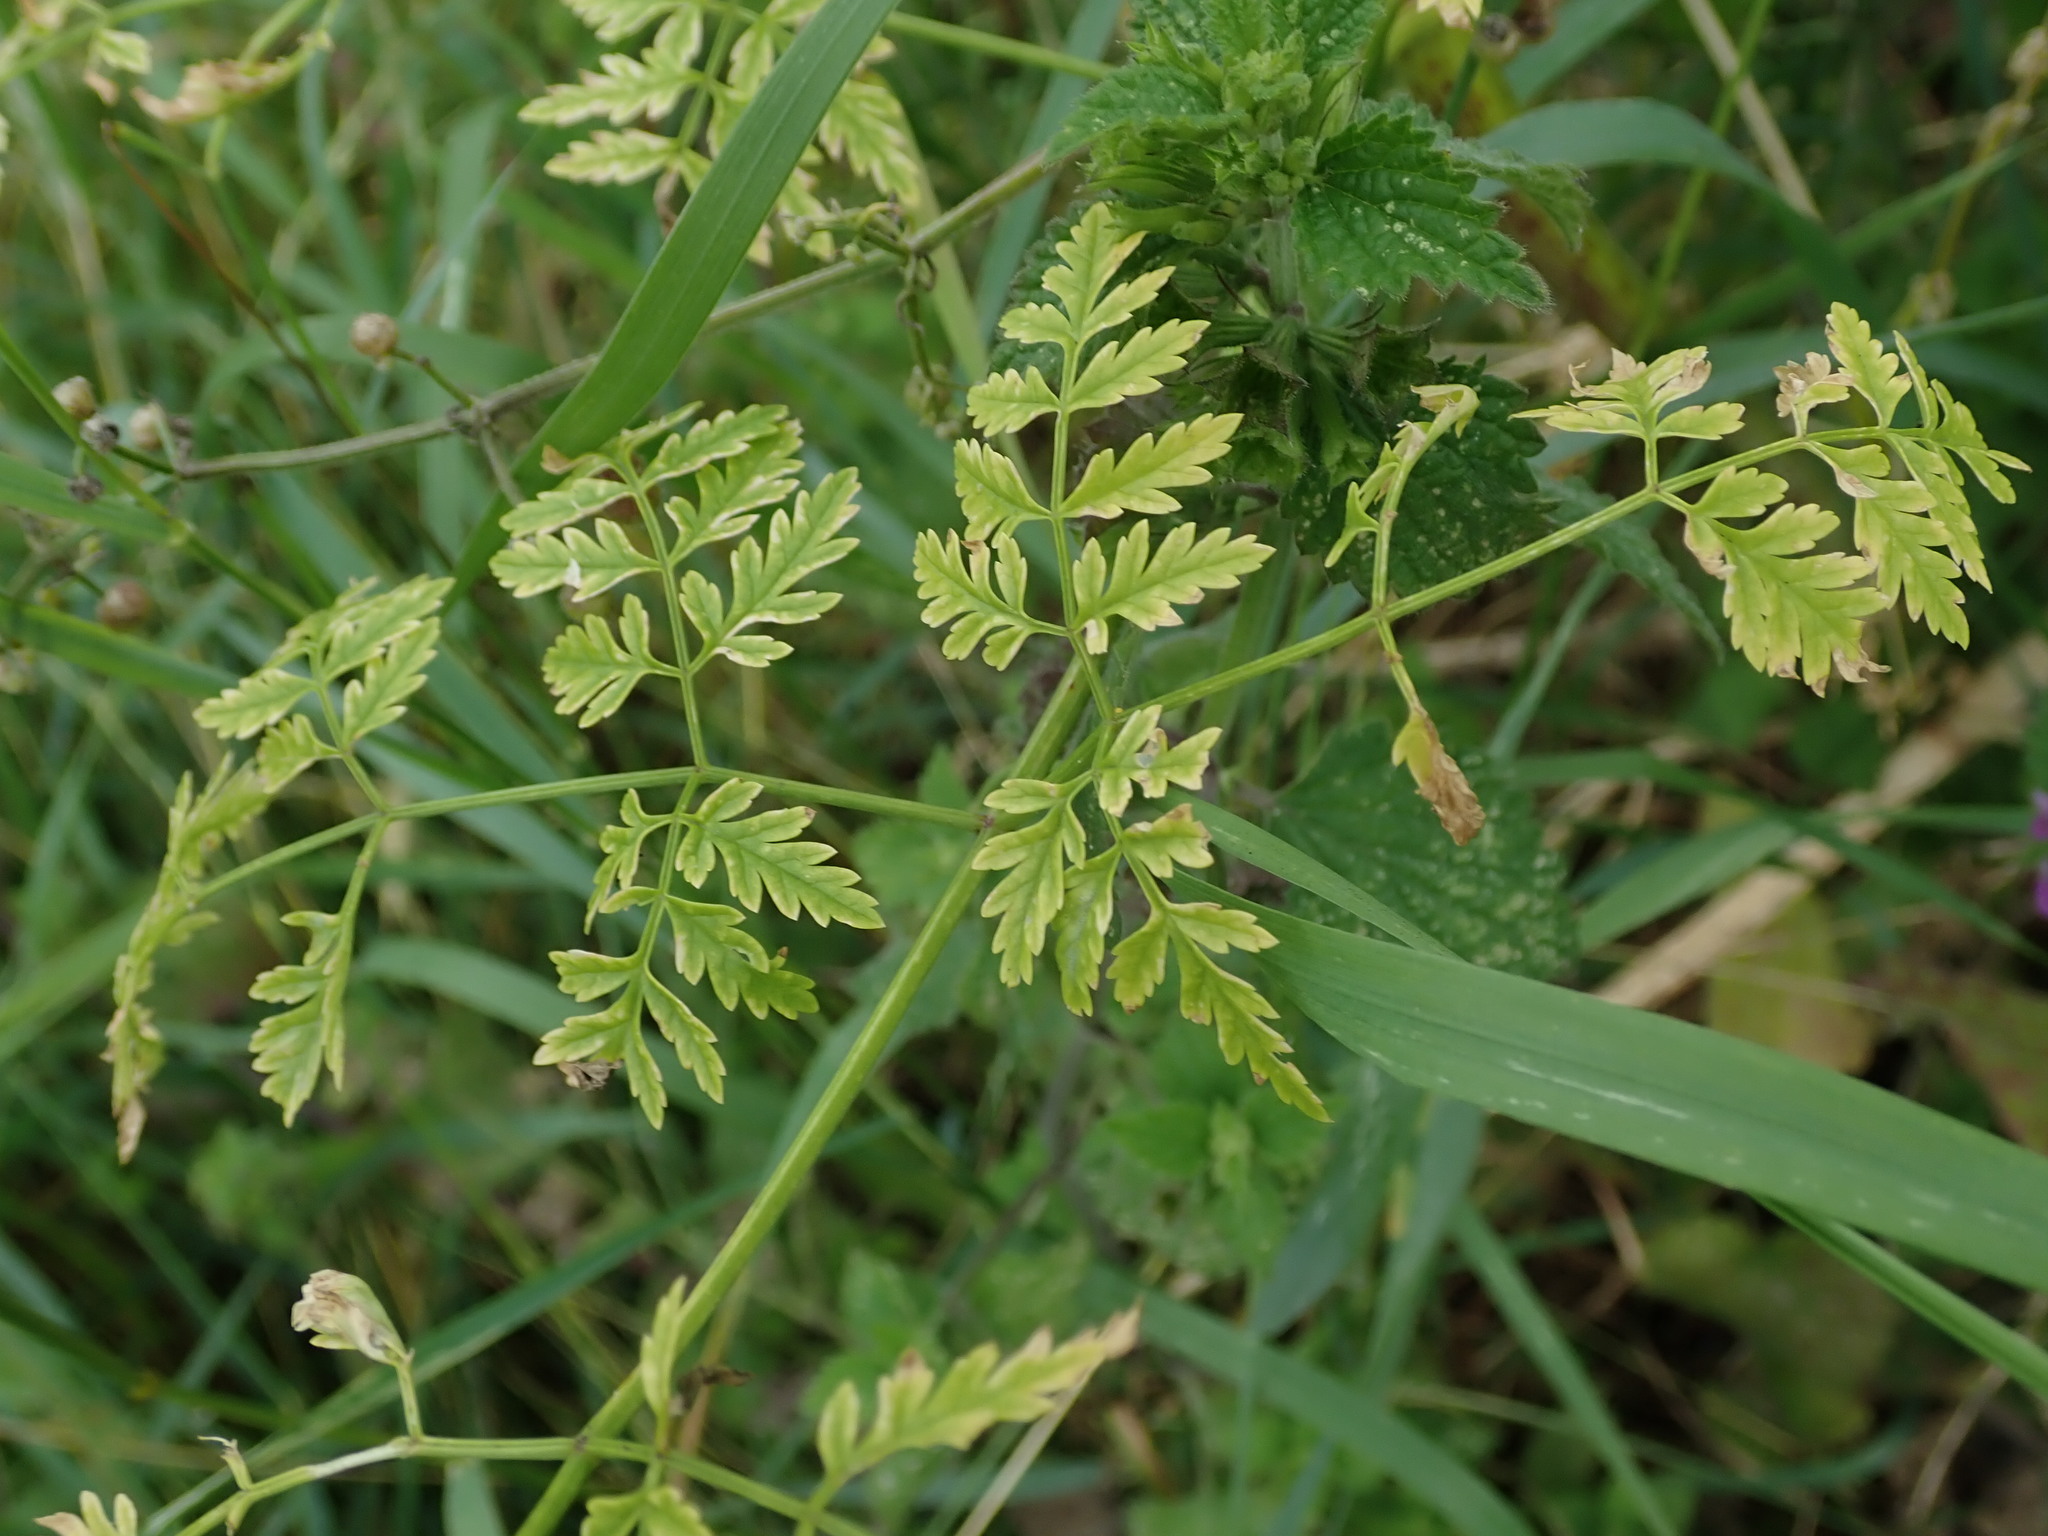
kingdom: Plantae
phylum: Tracheophyta
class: Magnoliopsida
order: Apiales
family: Apiaceae
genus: Conium
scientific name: Conium maculatum
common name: Hemlock
